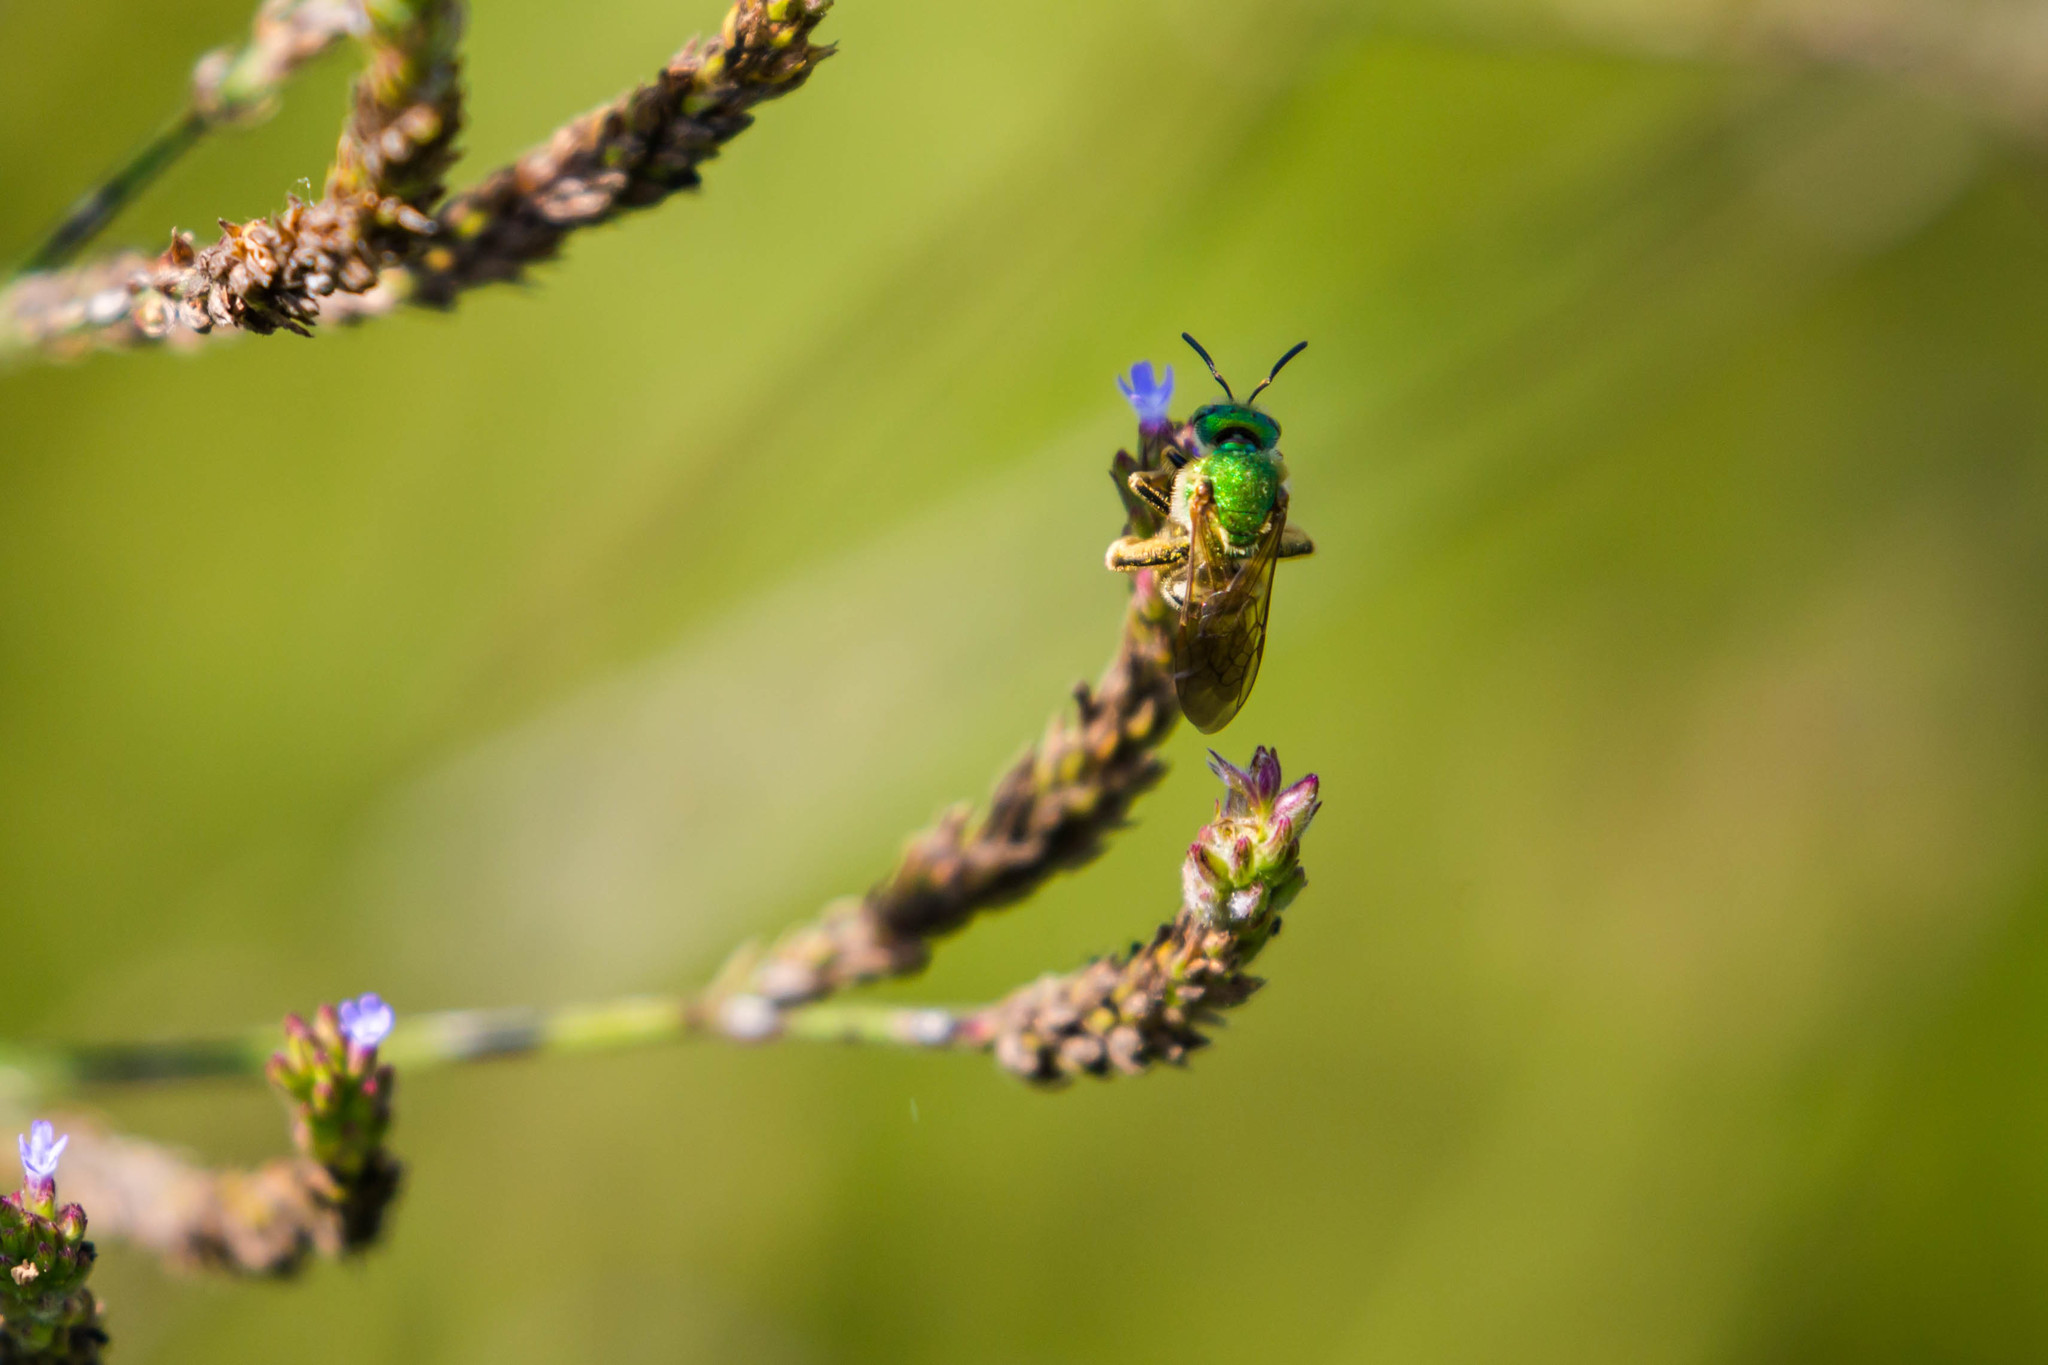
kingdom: Animalia
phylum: Arthropoda
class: Insecta
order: Hymenoptera
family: Halictidae
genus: Agapostemon
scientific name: Agapostemon virescens
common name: Bicolored striped sweat bee
